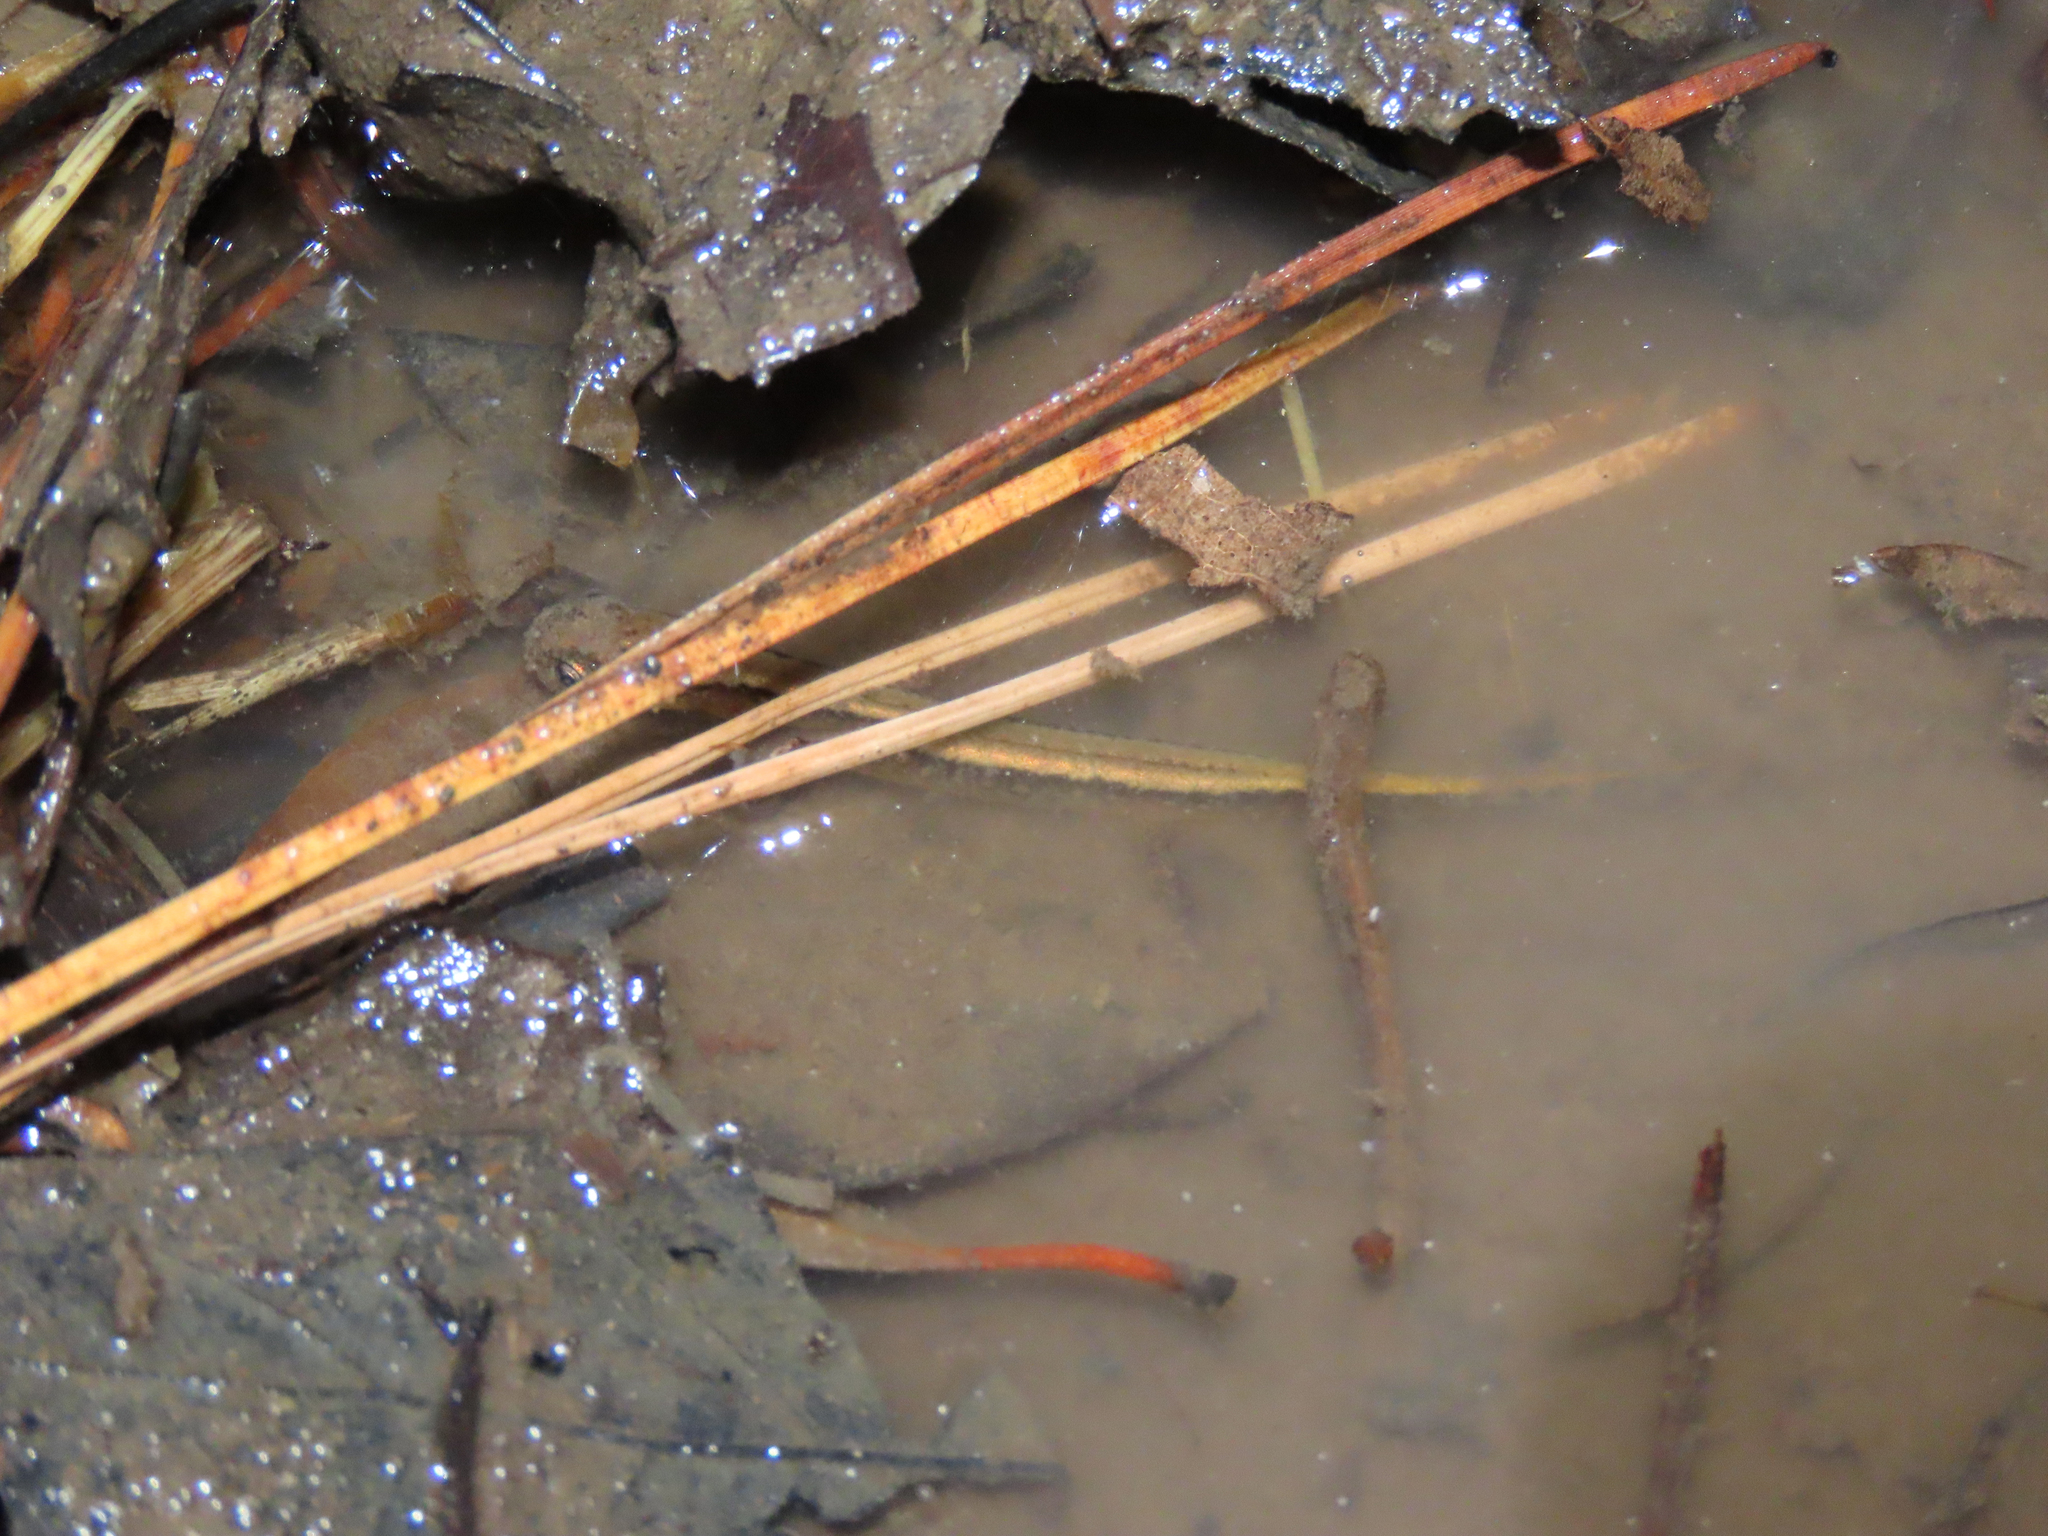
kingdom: Animalia
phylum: Chordata
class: Amphibia
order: Caudata
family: Plethodontidae
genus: Eurycea
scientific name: Eurycea cirrigera
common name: Southern two-lined salamander
